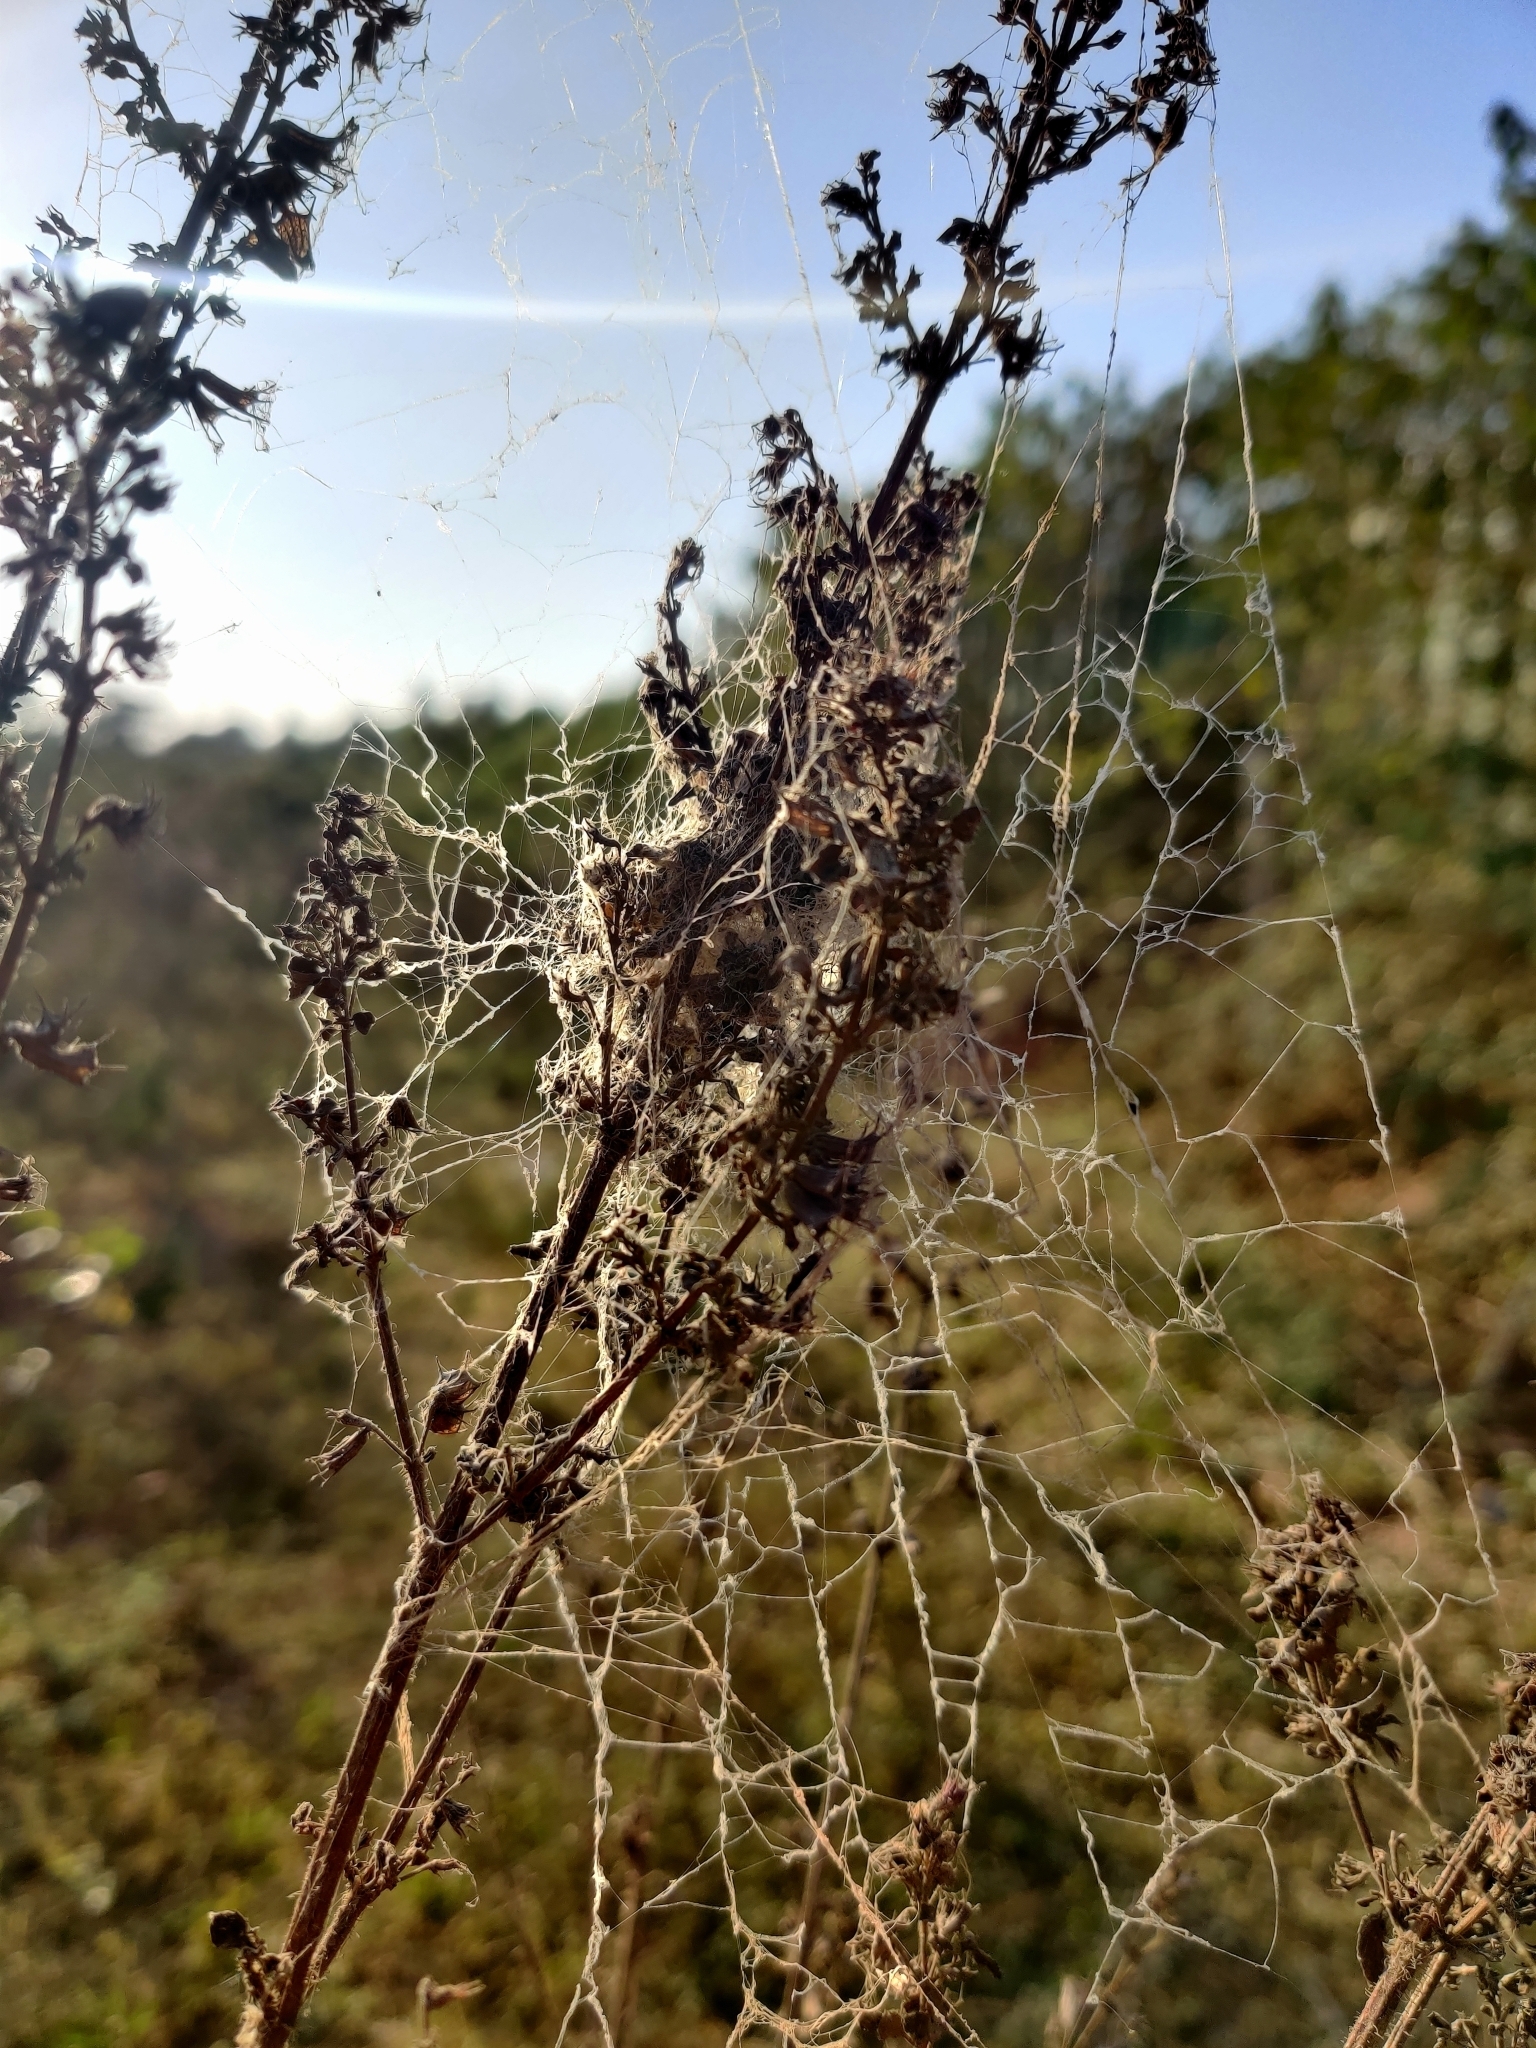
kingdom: Animalia
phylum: Arthropoda
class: Arachnida
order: Araneae
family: Eresidae
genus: Stegodyphus
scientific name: Stegodyphus sarasinorum
